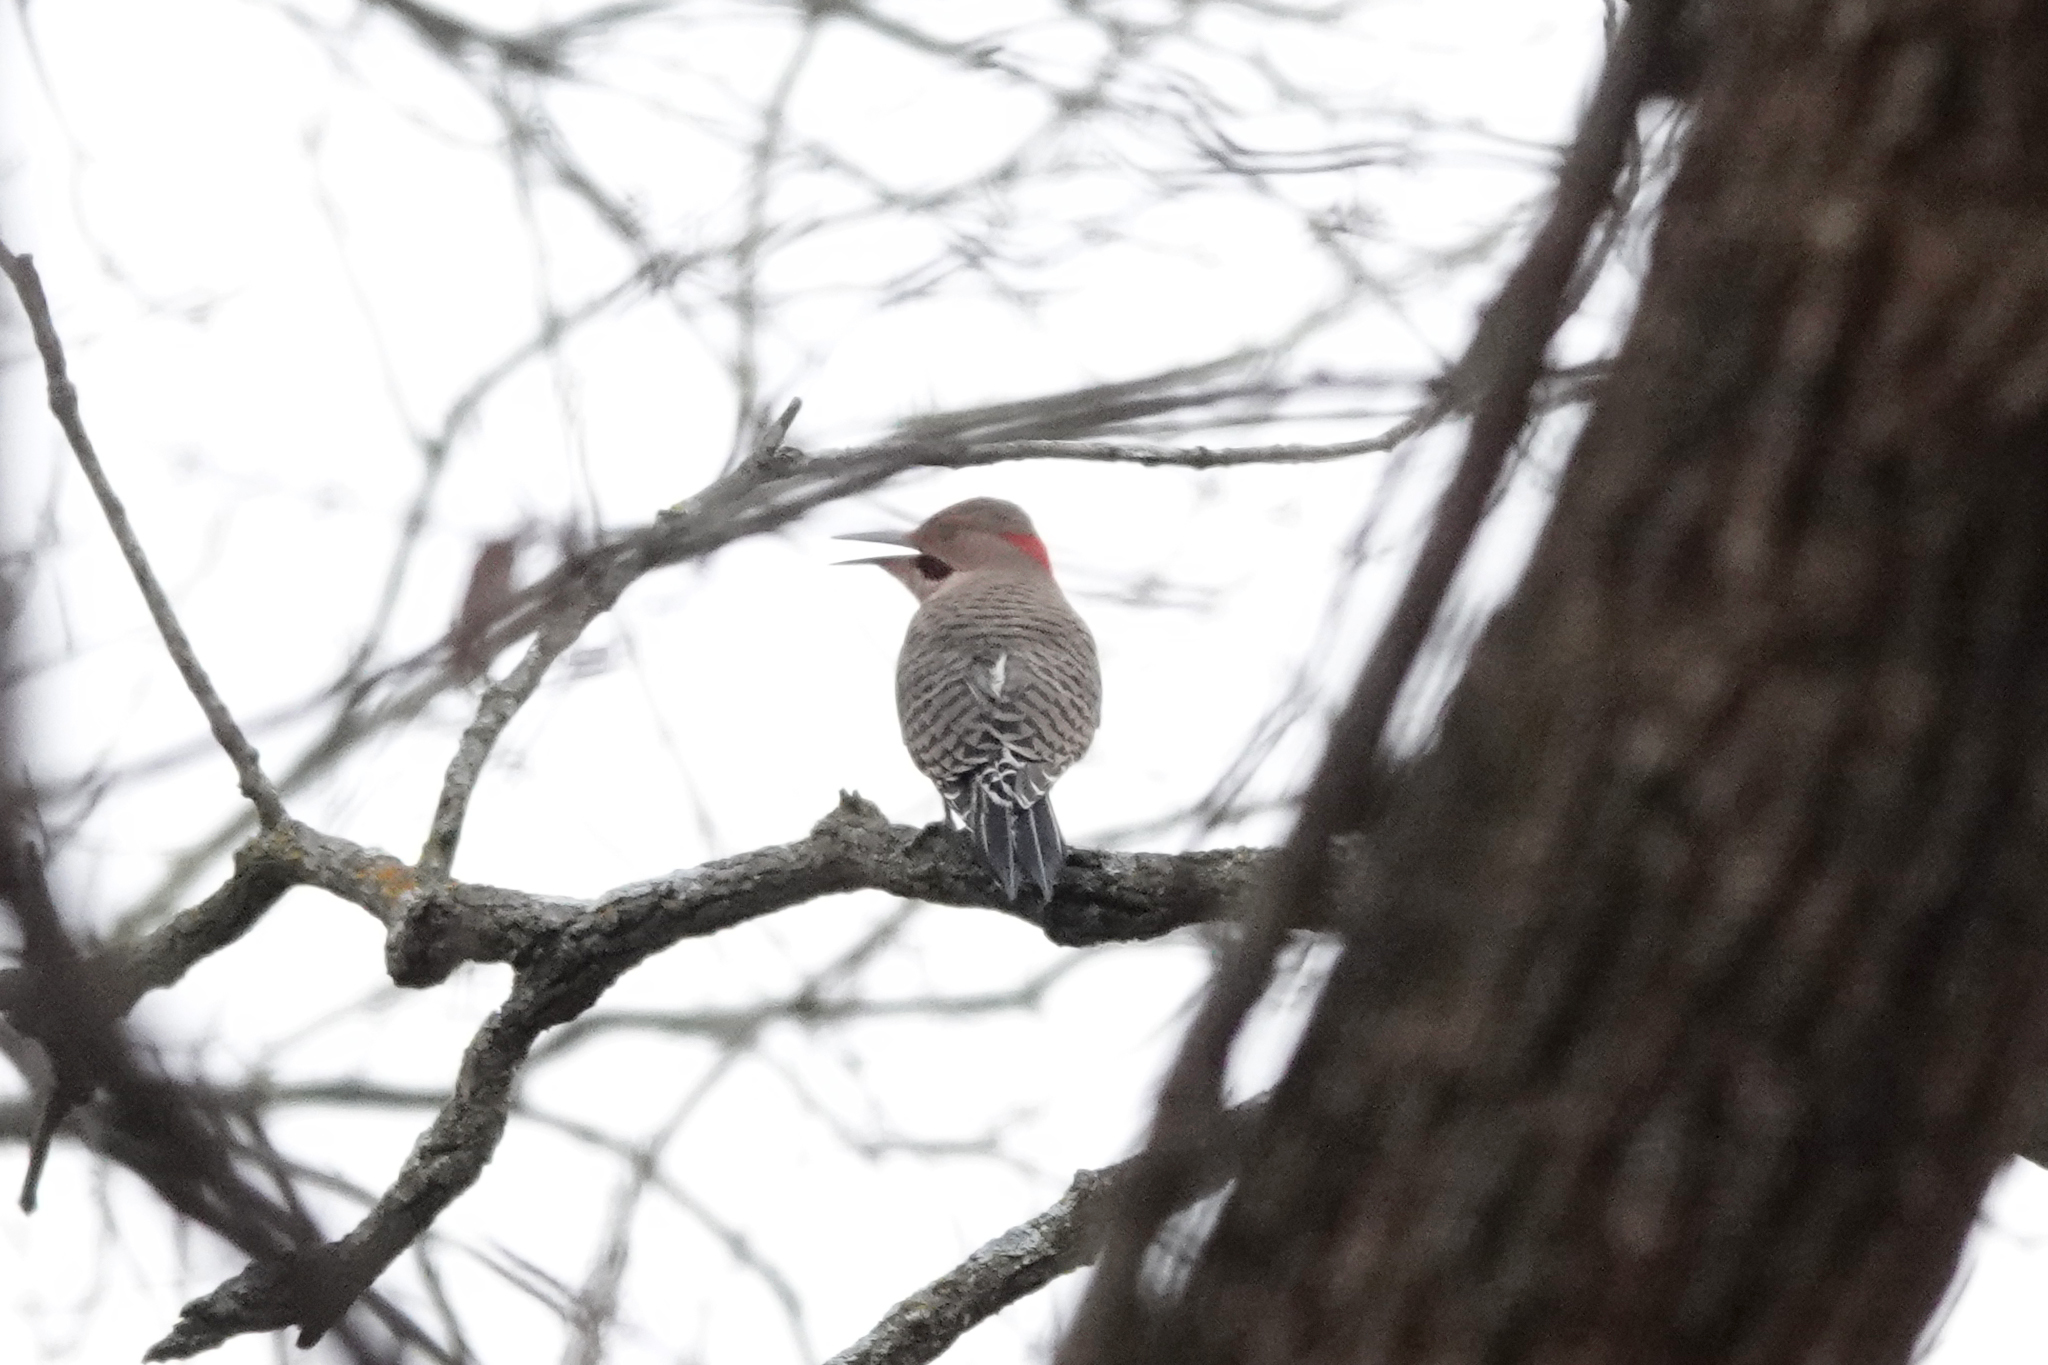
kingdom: Animalia
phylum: Chordata
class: Aves
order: Piciformes
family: Picidae
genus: Colaptes
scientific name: Colaptes auratus
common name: Northern flicker
